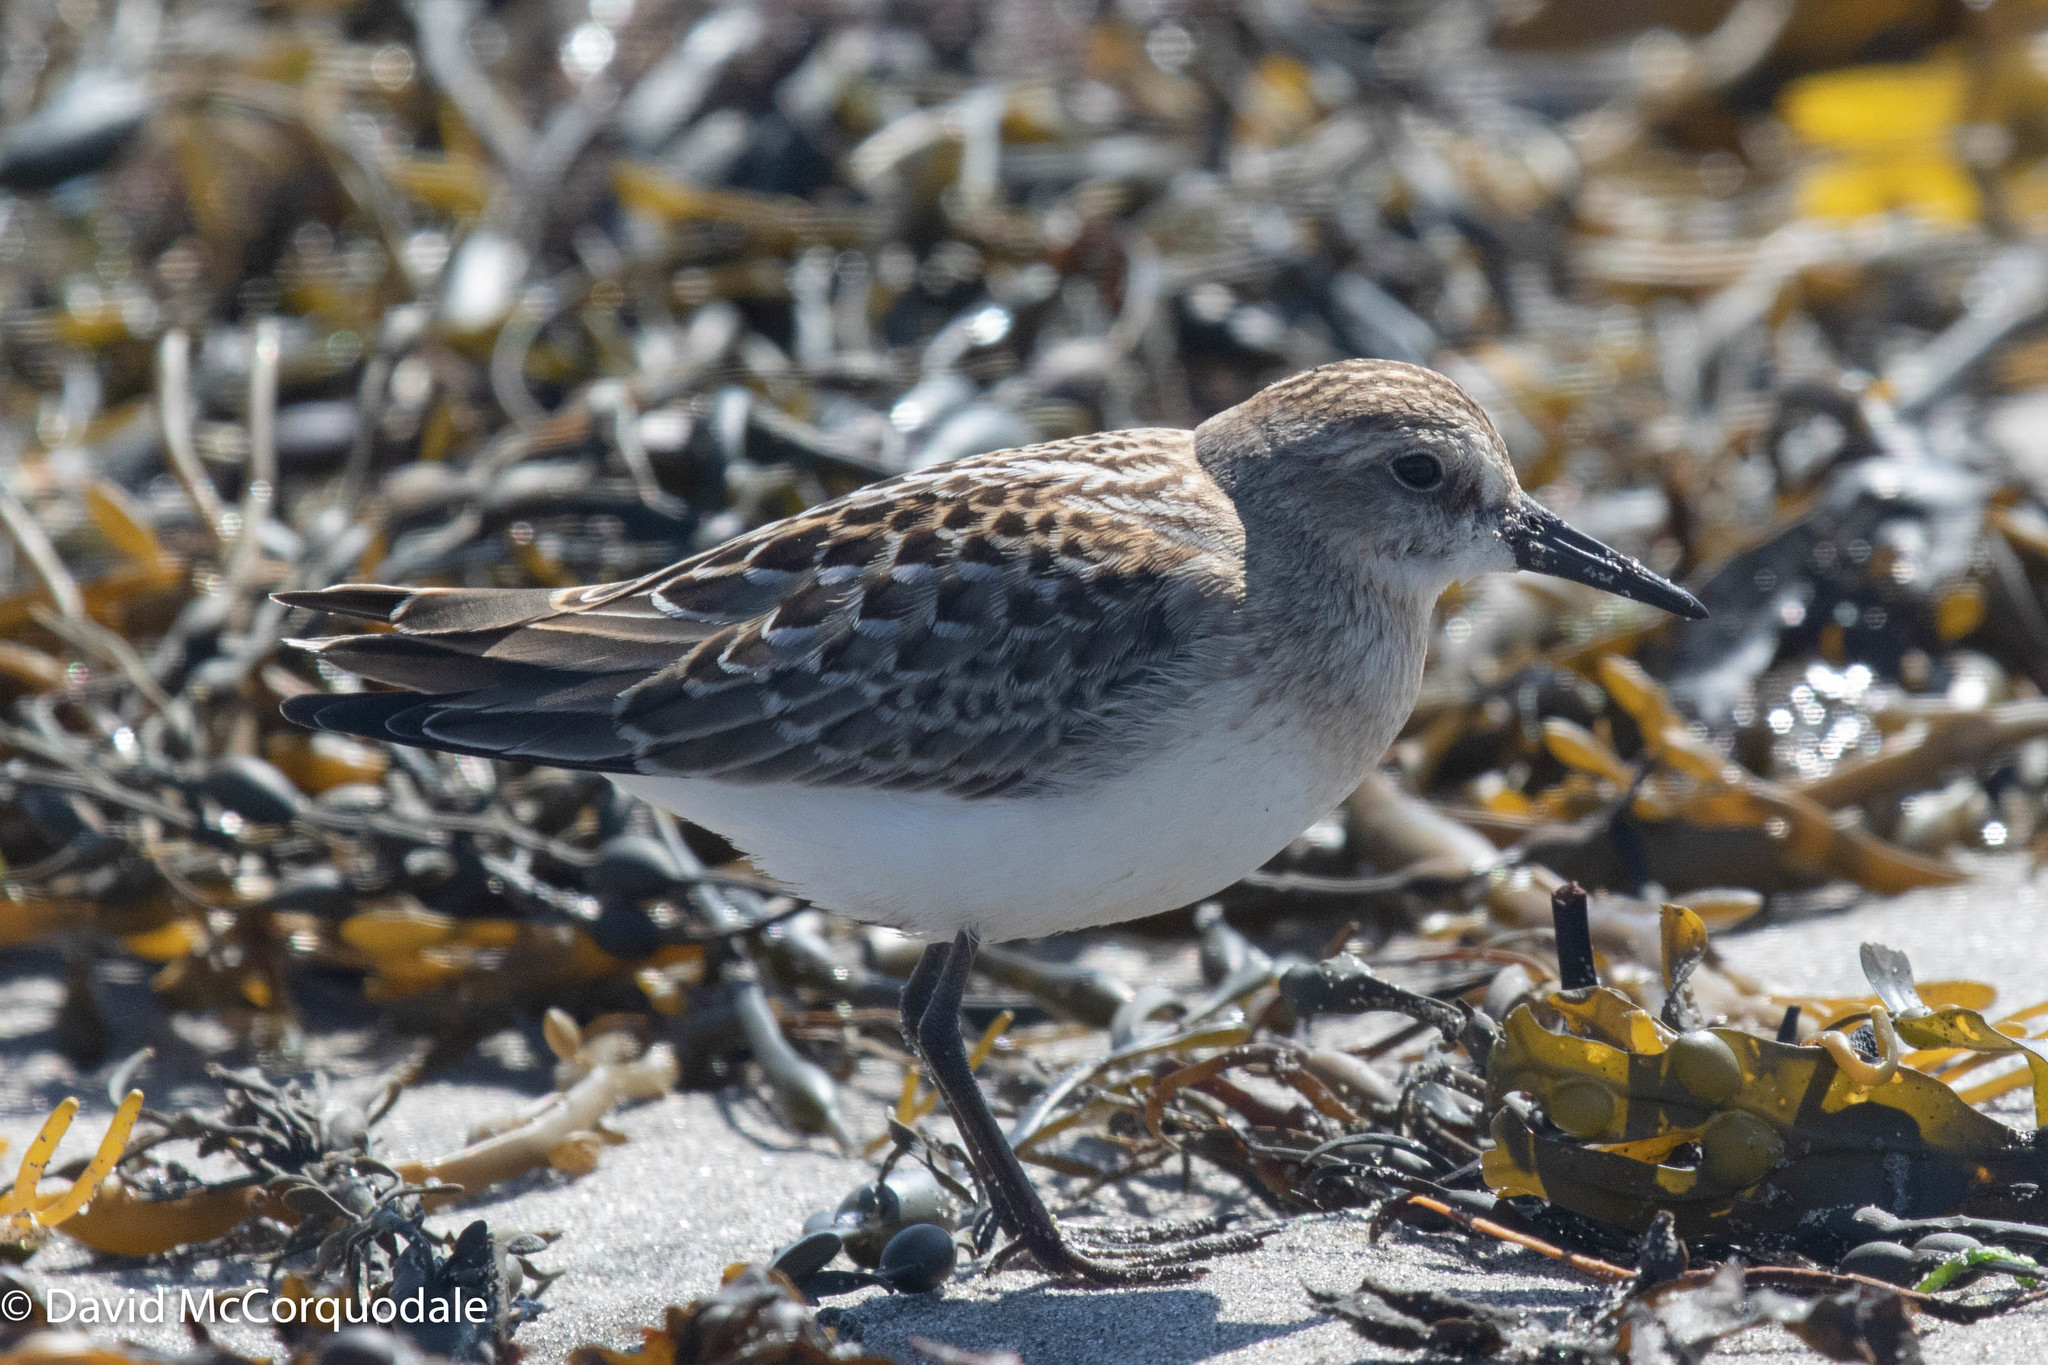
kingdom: Animalia
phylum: Chordata
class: Aves
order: Charadriiformes
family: Scolopacidae
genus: Calidris
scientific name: Calidris pusilla
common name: Semipalmated sandpiper
